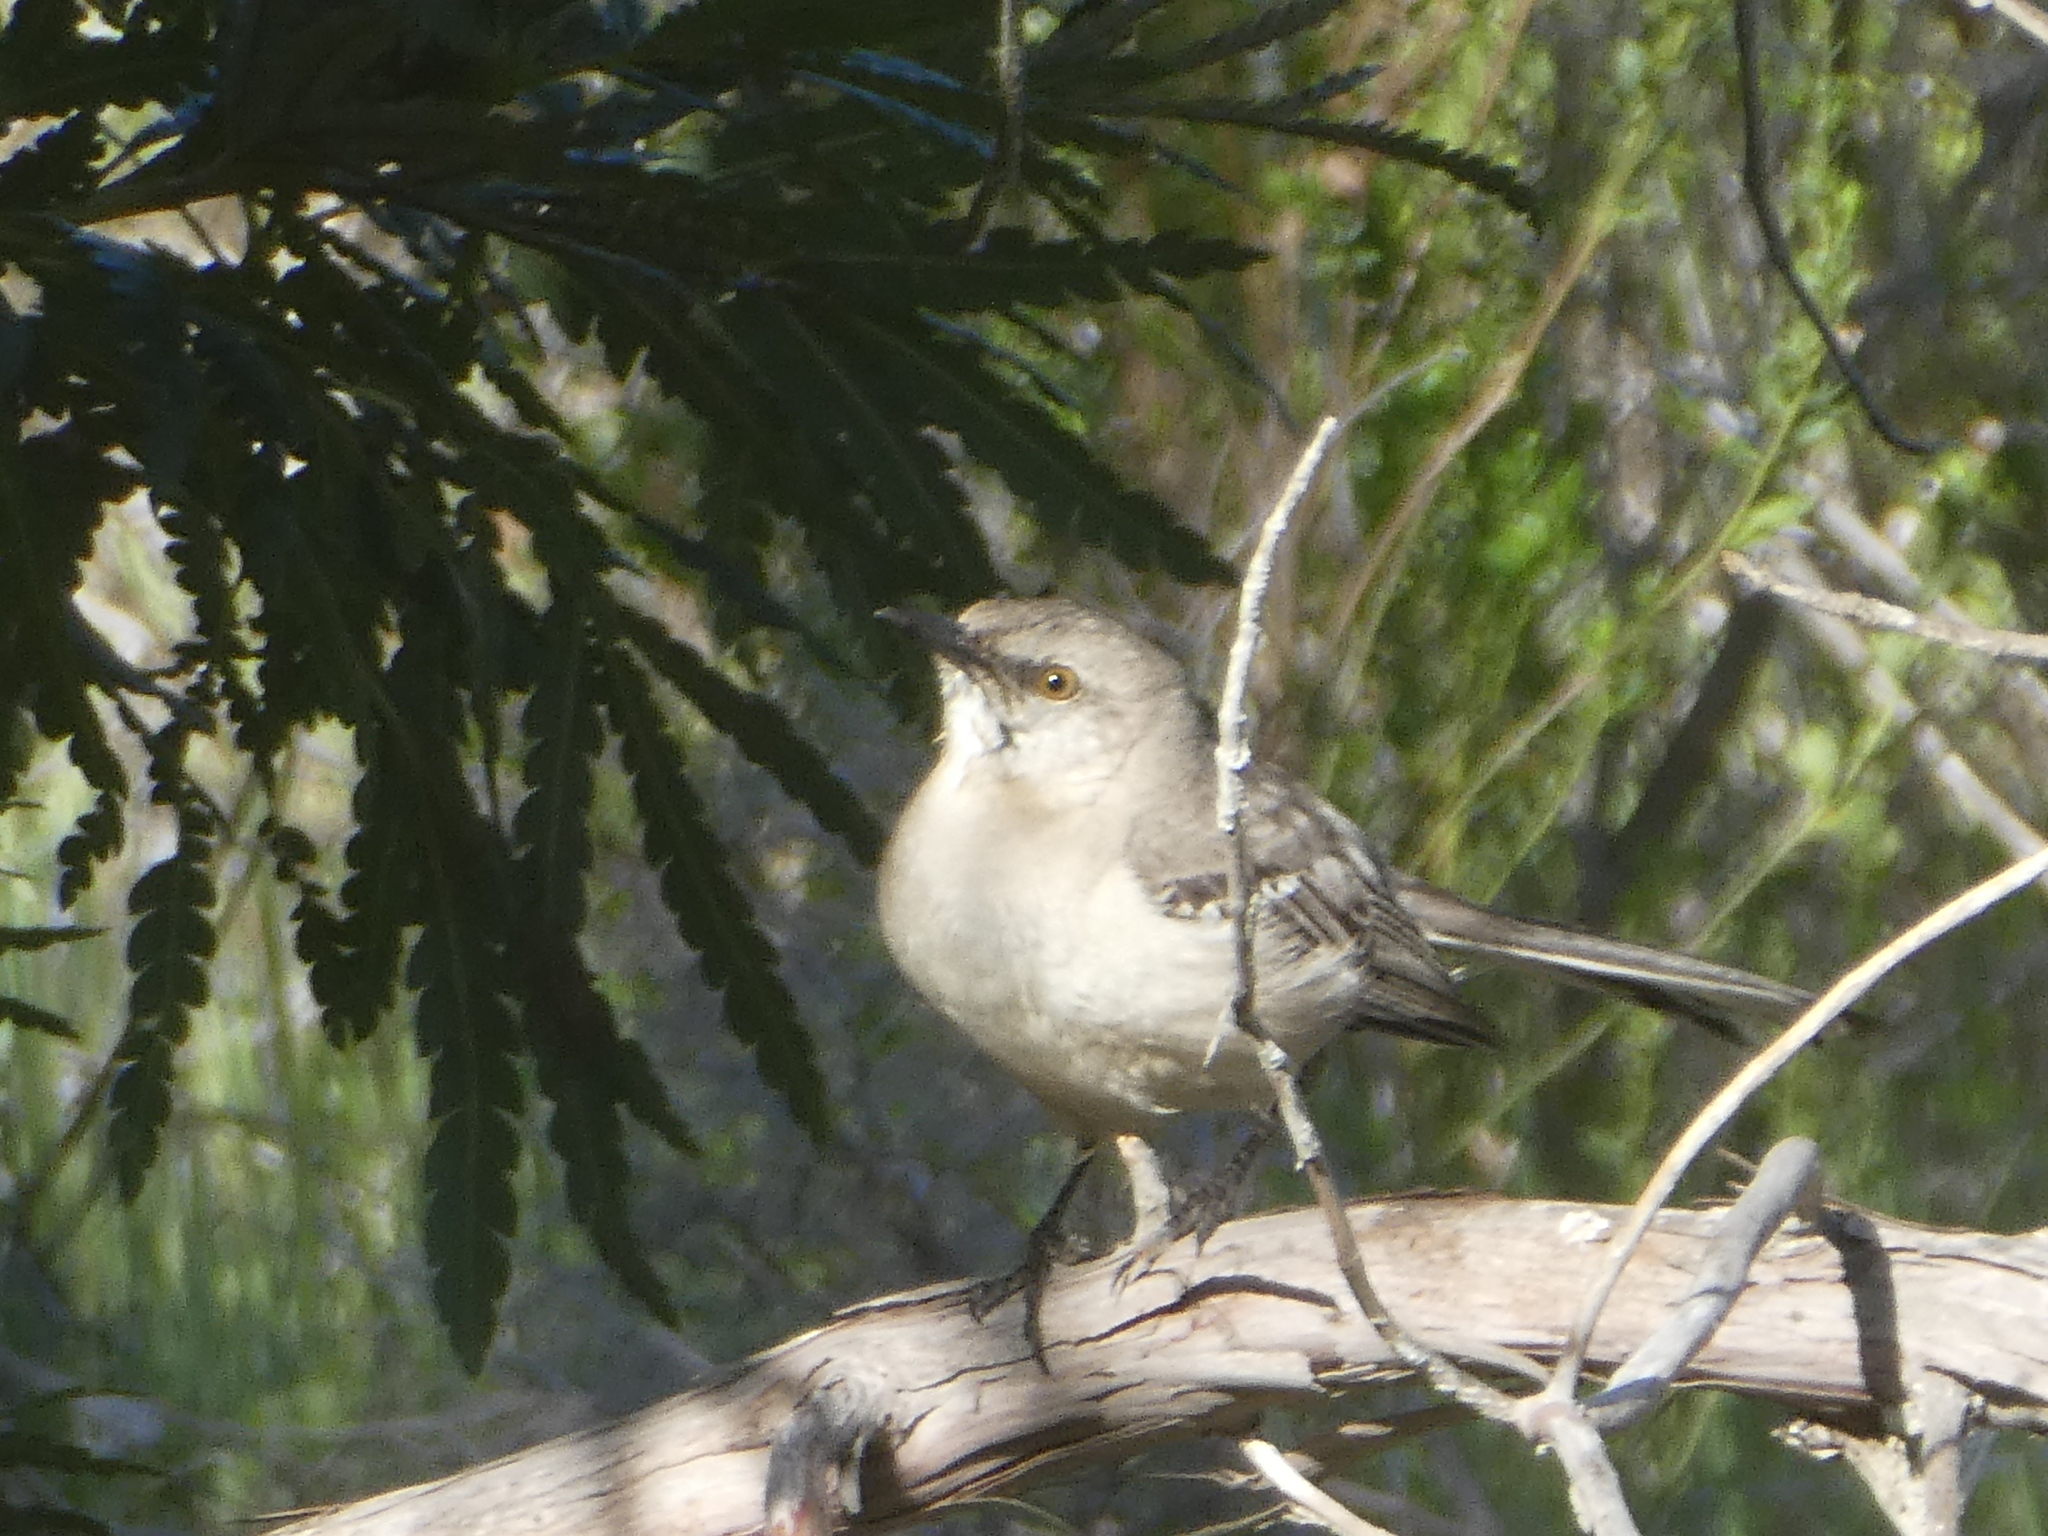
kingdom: Animalia
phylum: Chordata
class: Aves
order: Passeriformes
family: Mimidae
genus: Mimus
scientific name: Mimus polyglottos
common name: Northern mockingbird
